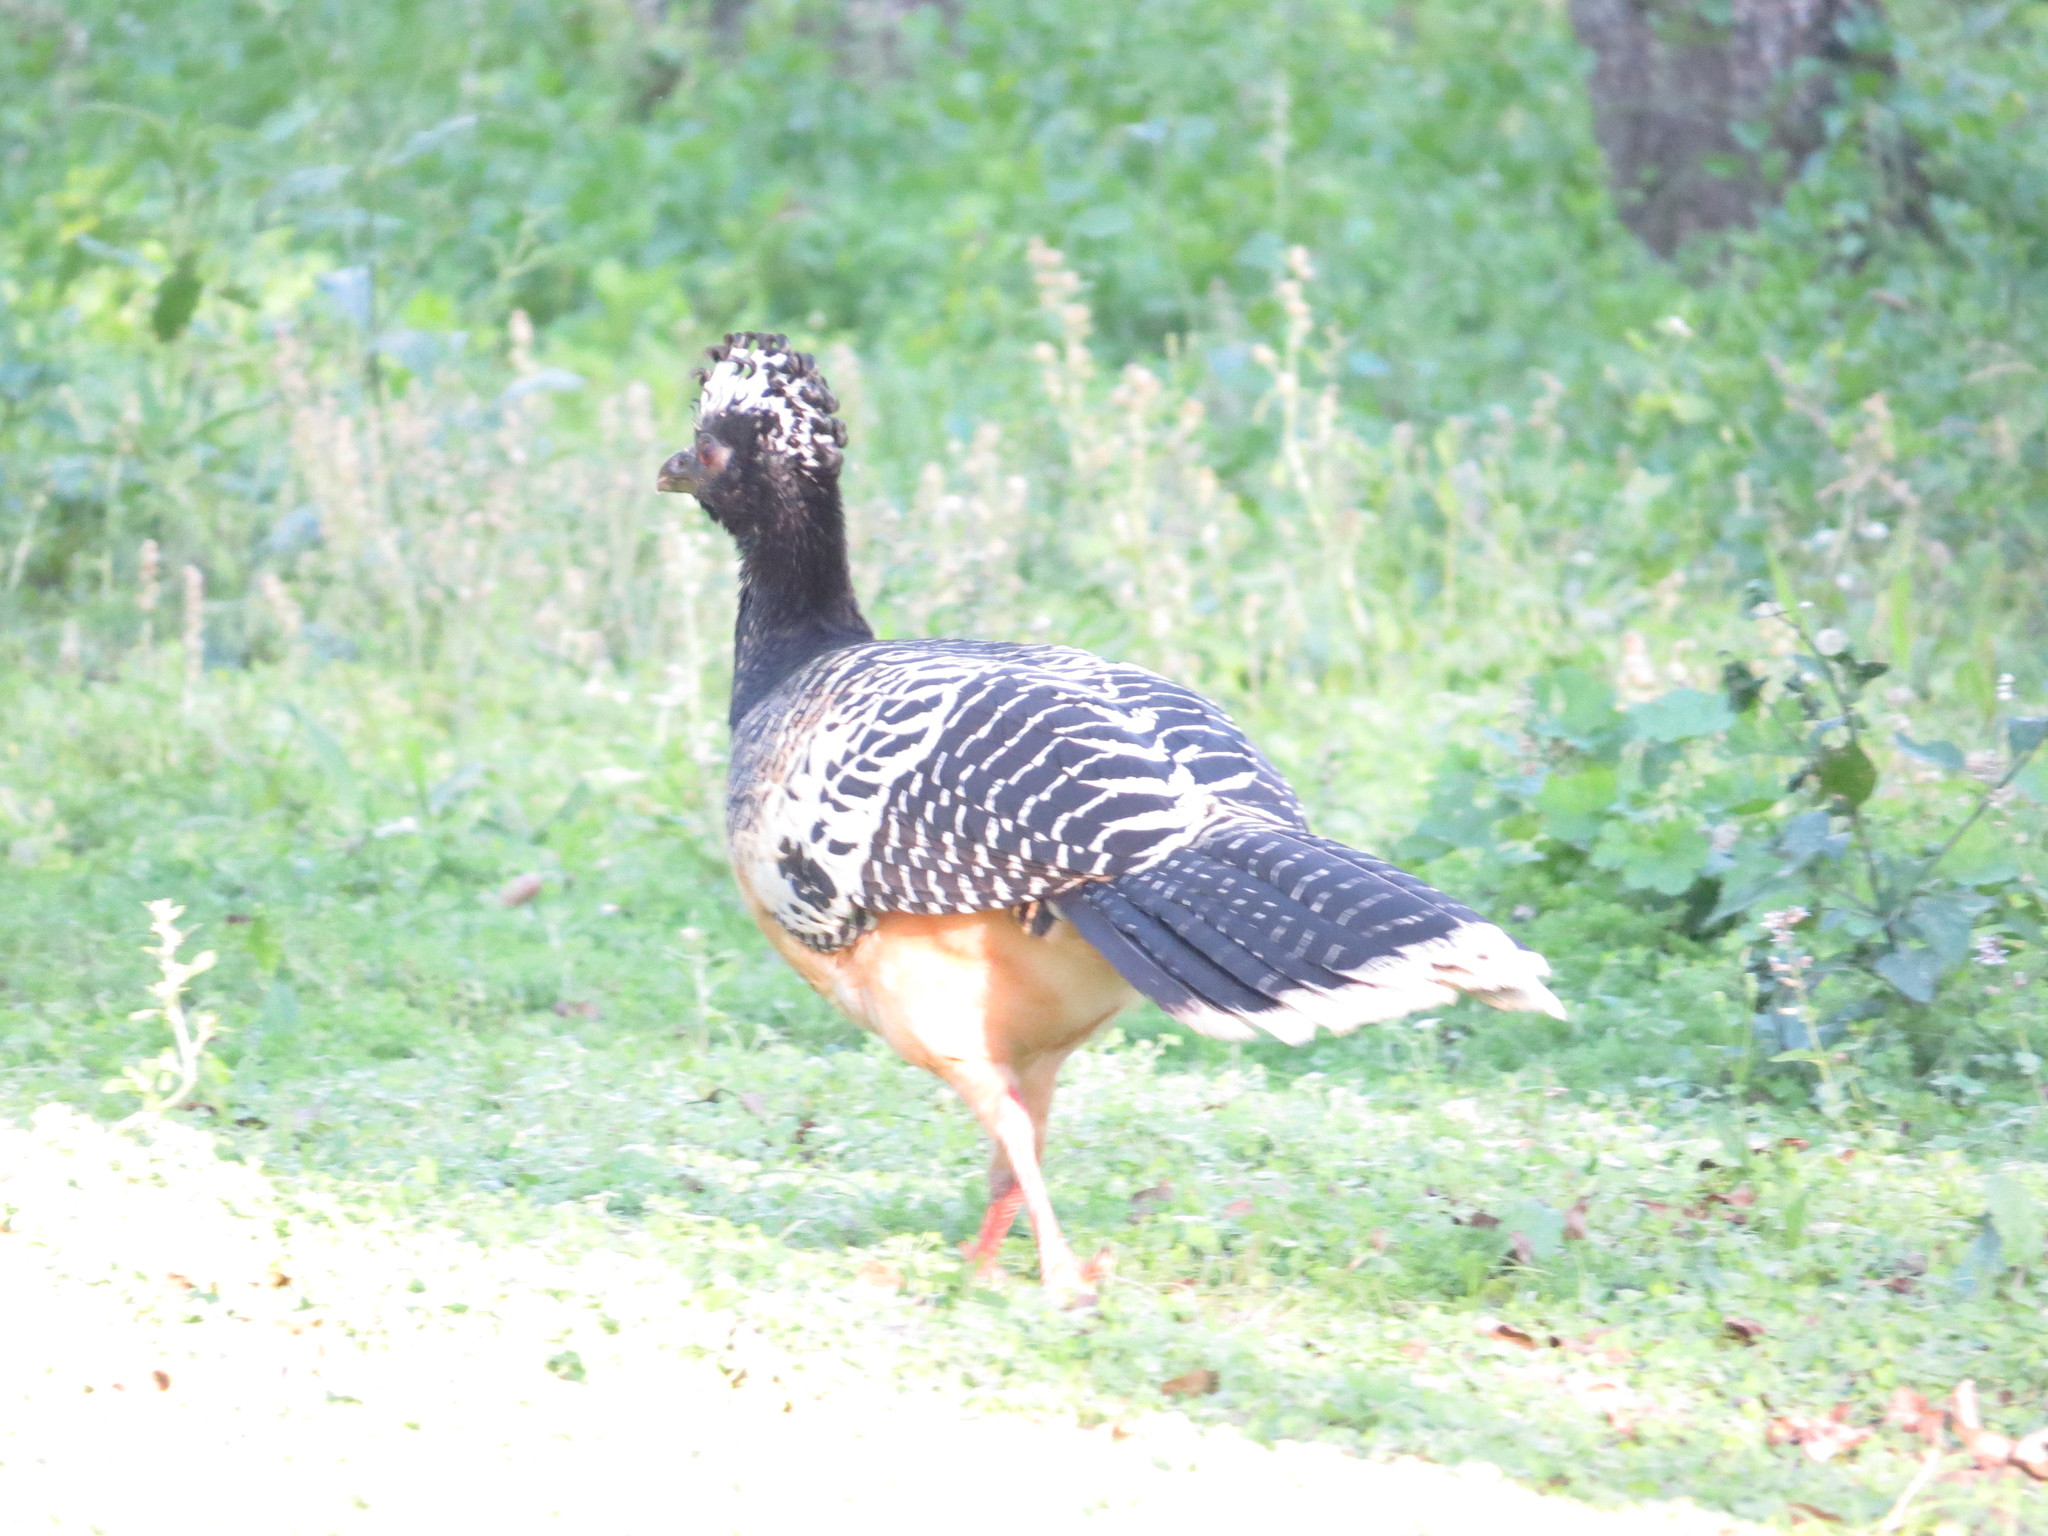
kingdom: Animalia
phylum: Chordata
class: Aves
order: Galliformes
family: Cracidae
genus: Crax
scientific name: Crax fasciolata
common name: Bare-faced curassow
